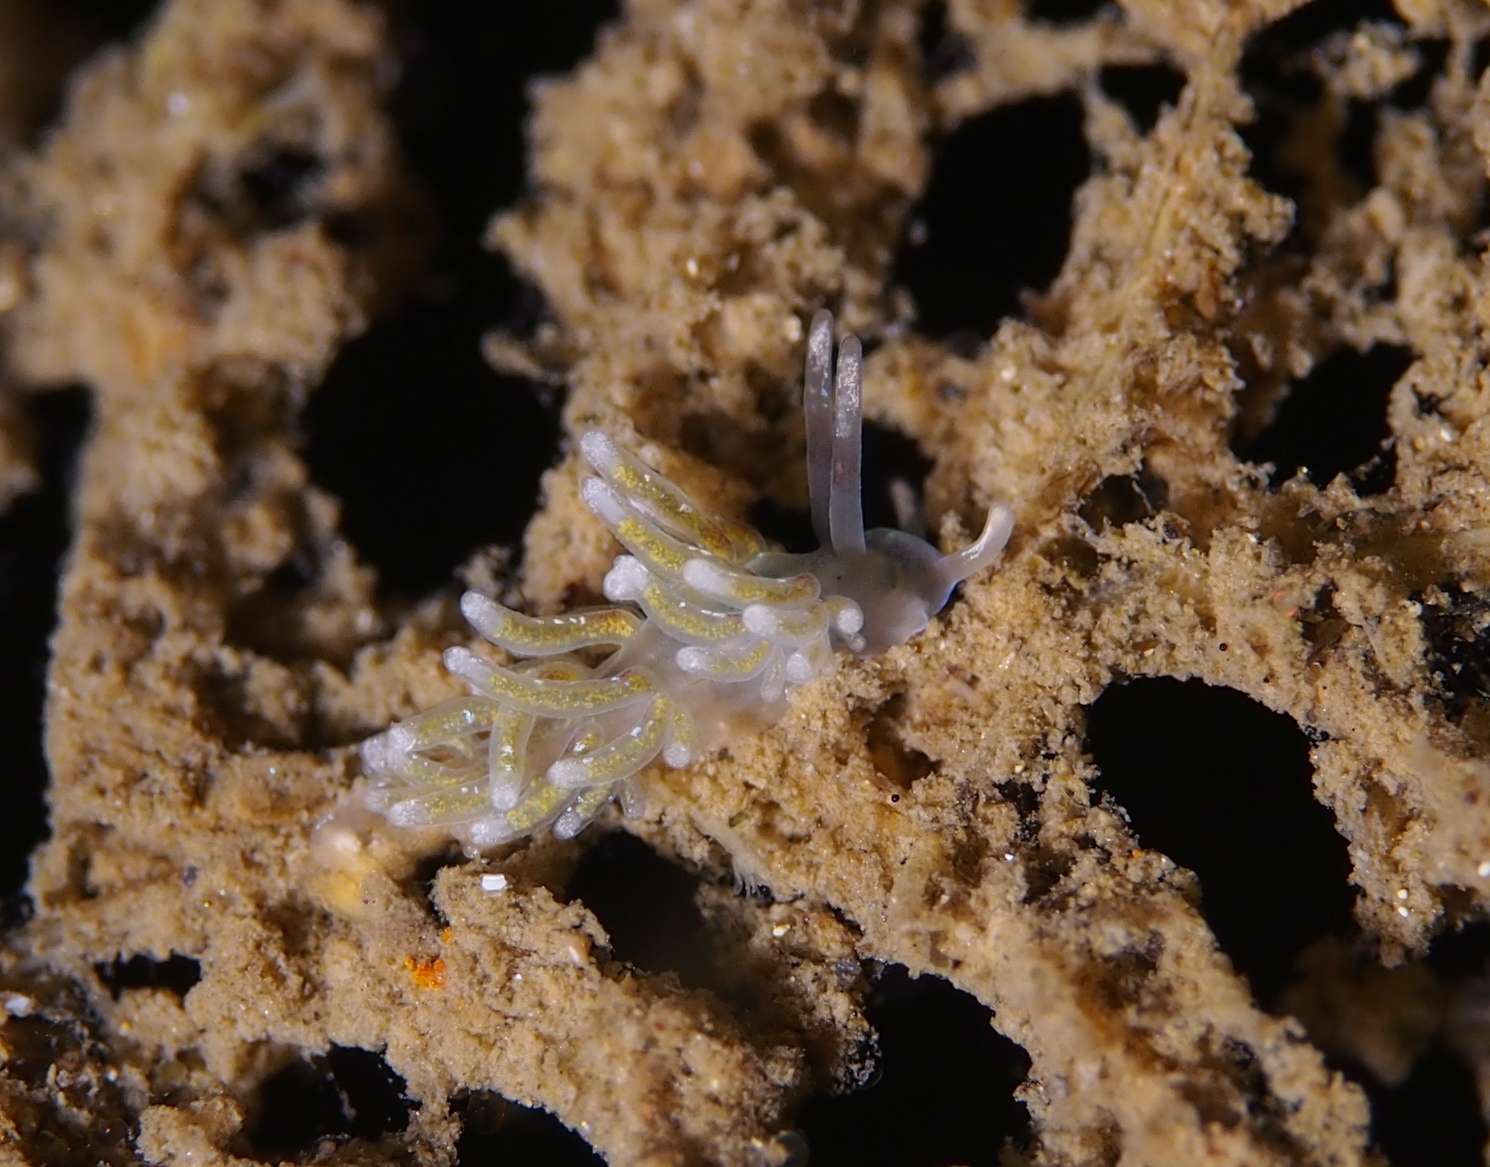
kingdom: Animalia
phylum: Mollusca
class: Gastropoda
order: Nudibranchia
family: Trinchesiidae
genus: Rubramoena
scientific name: Rubramoena rubescens
